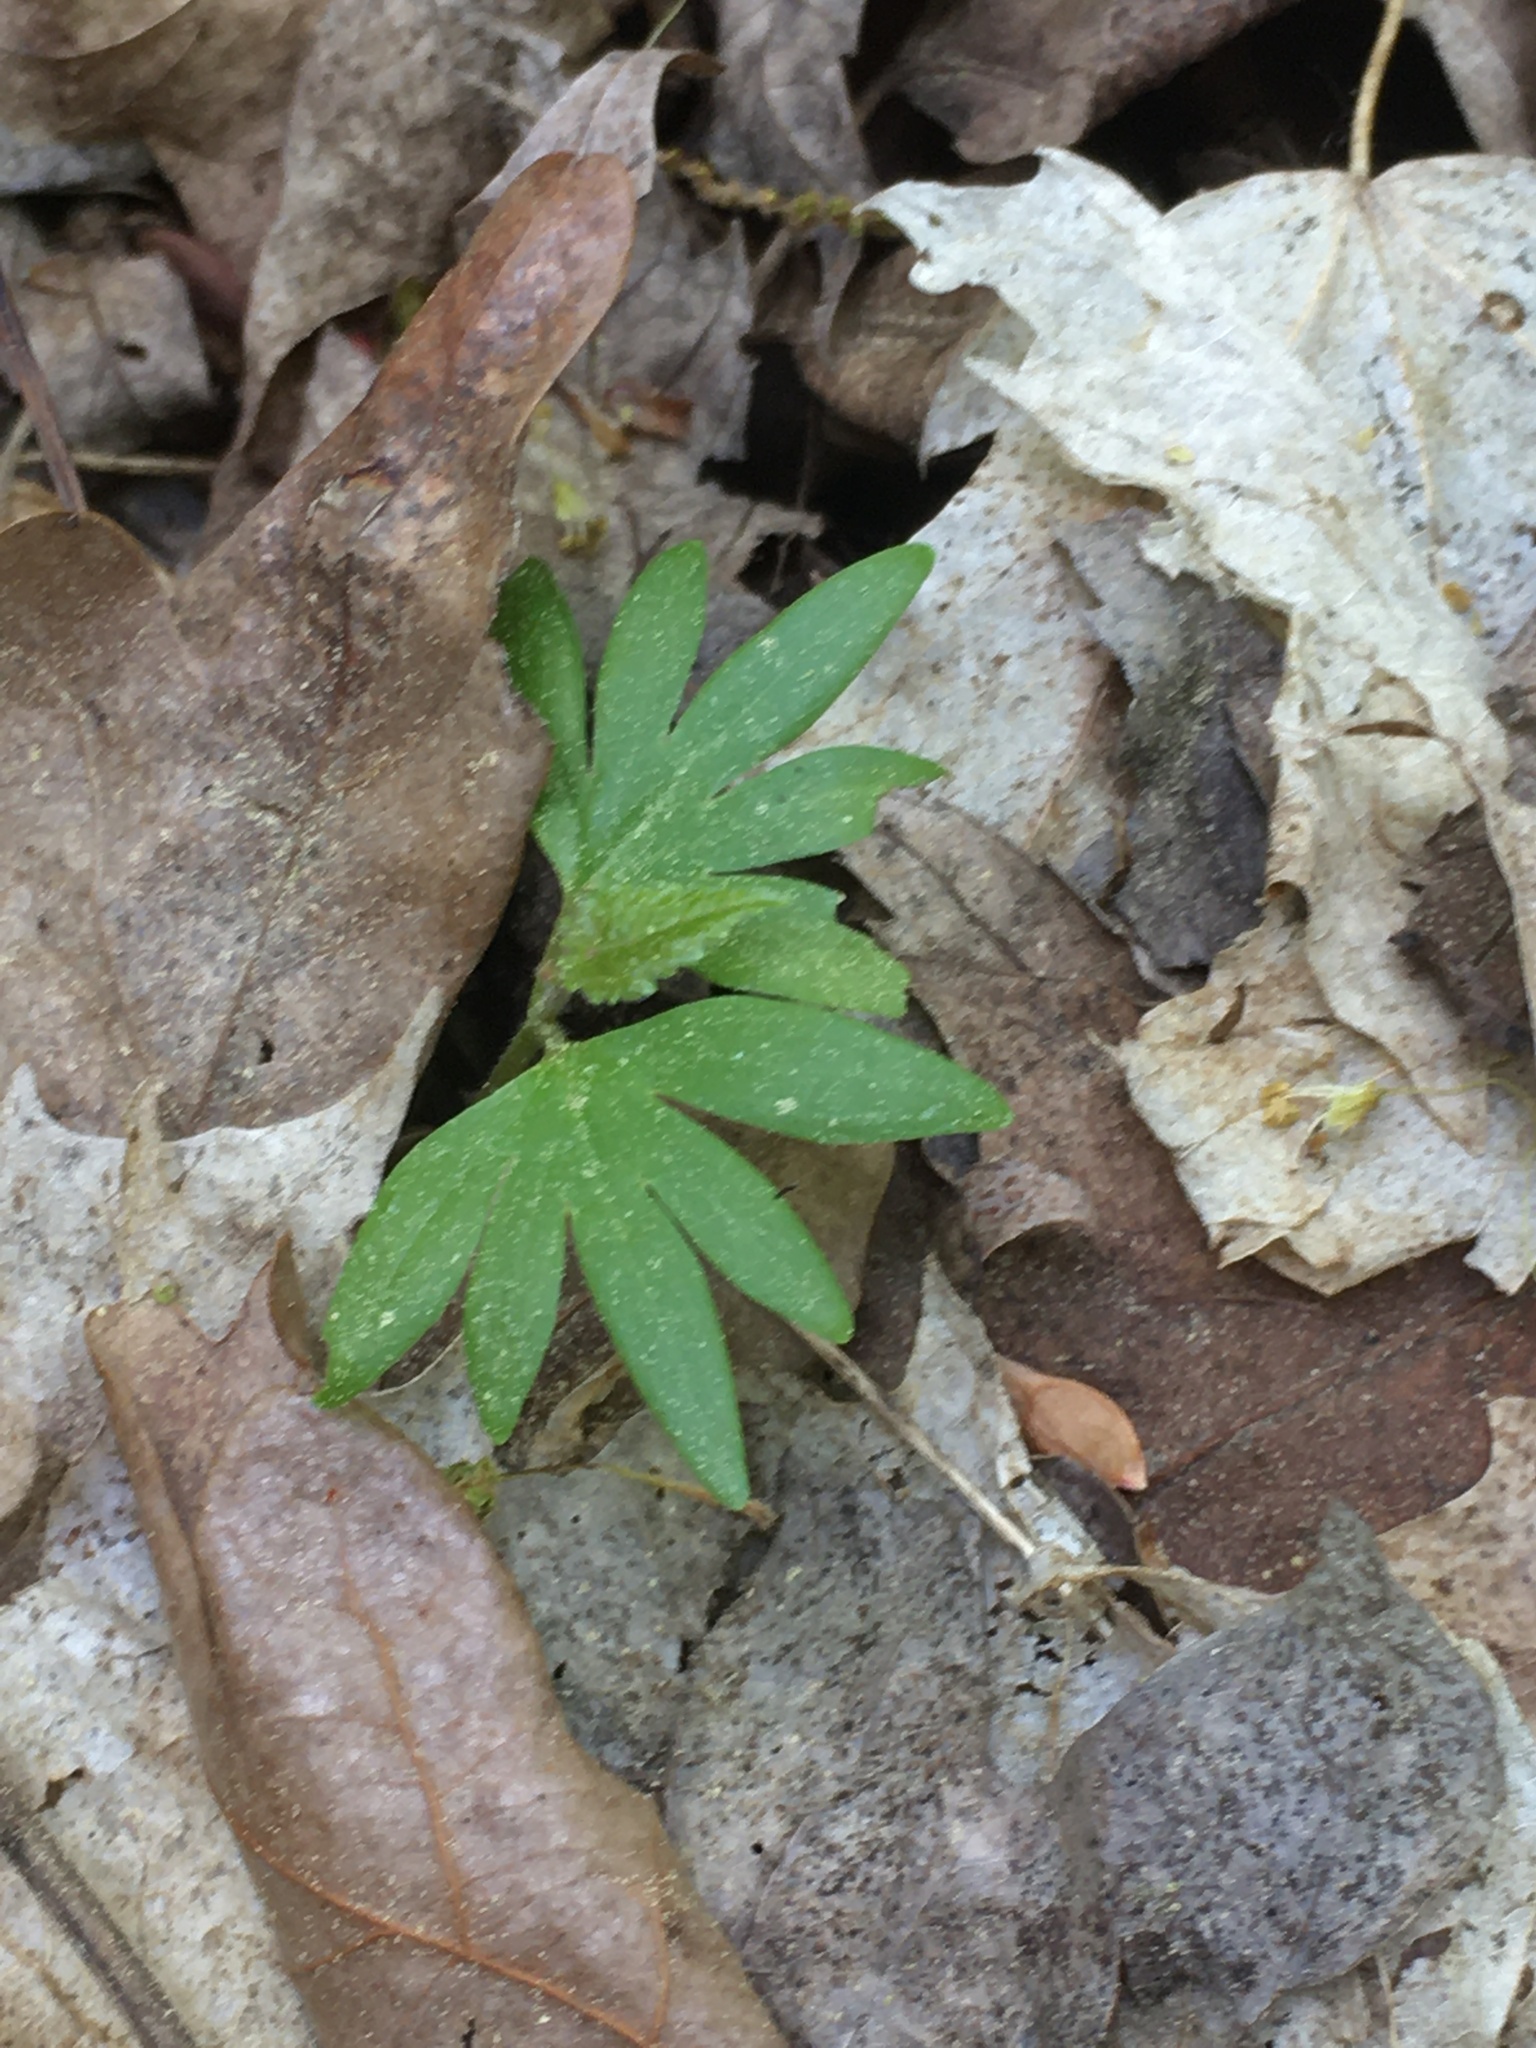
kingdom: Plantae
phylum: Tracheophyta
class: Magnoliopsida
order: Malvales
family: Malvaceae
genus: Tilia
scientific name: Tilia americana
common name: Basswood
